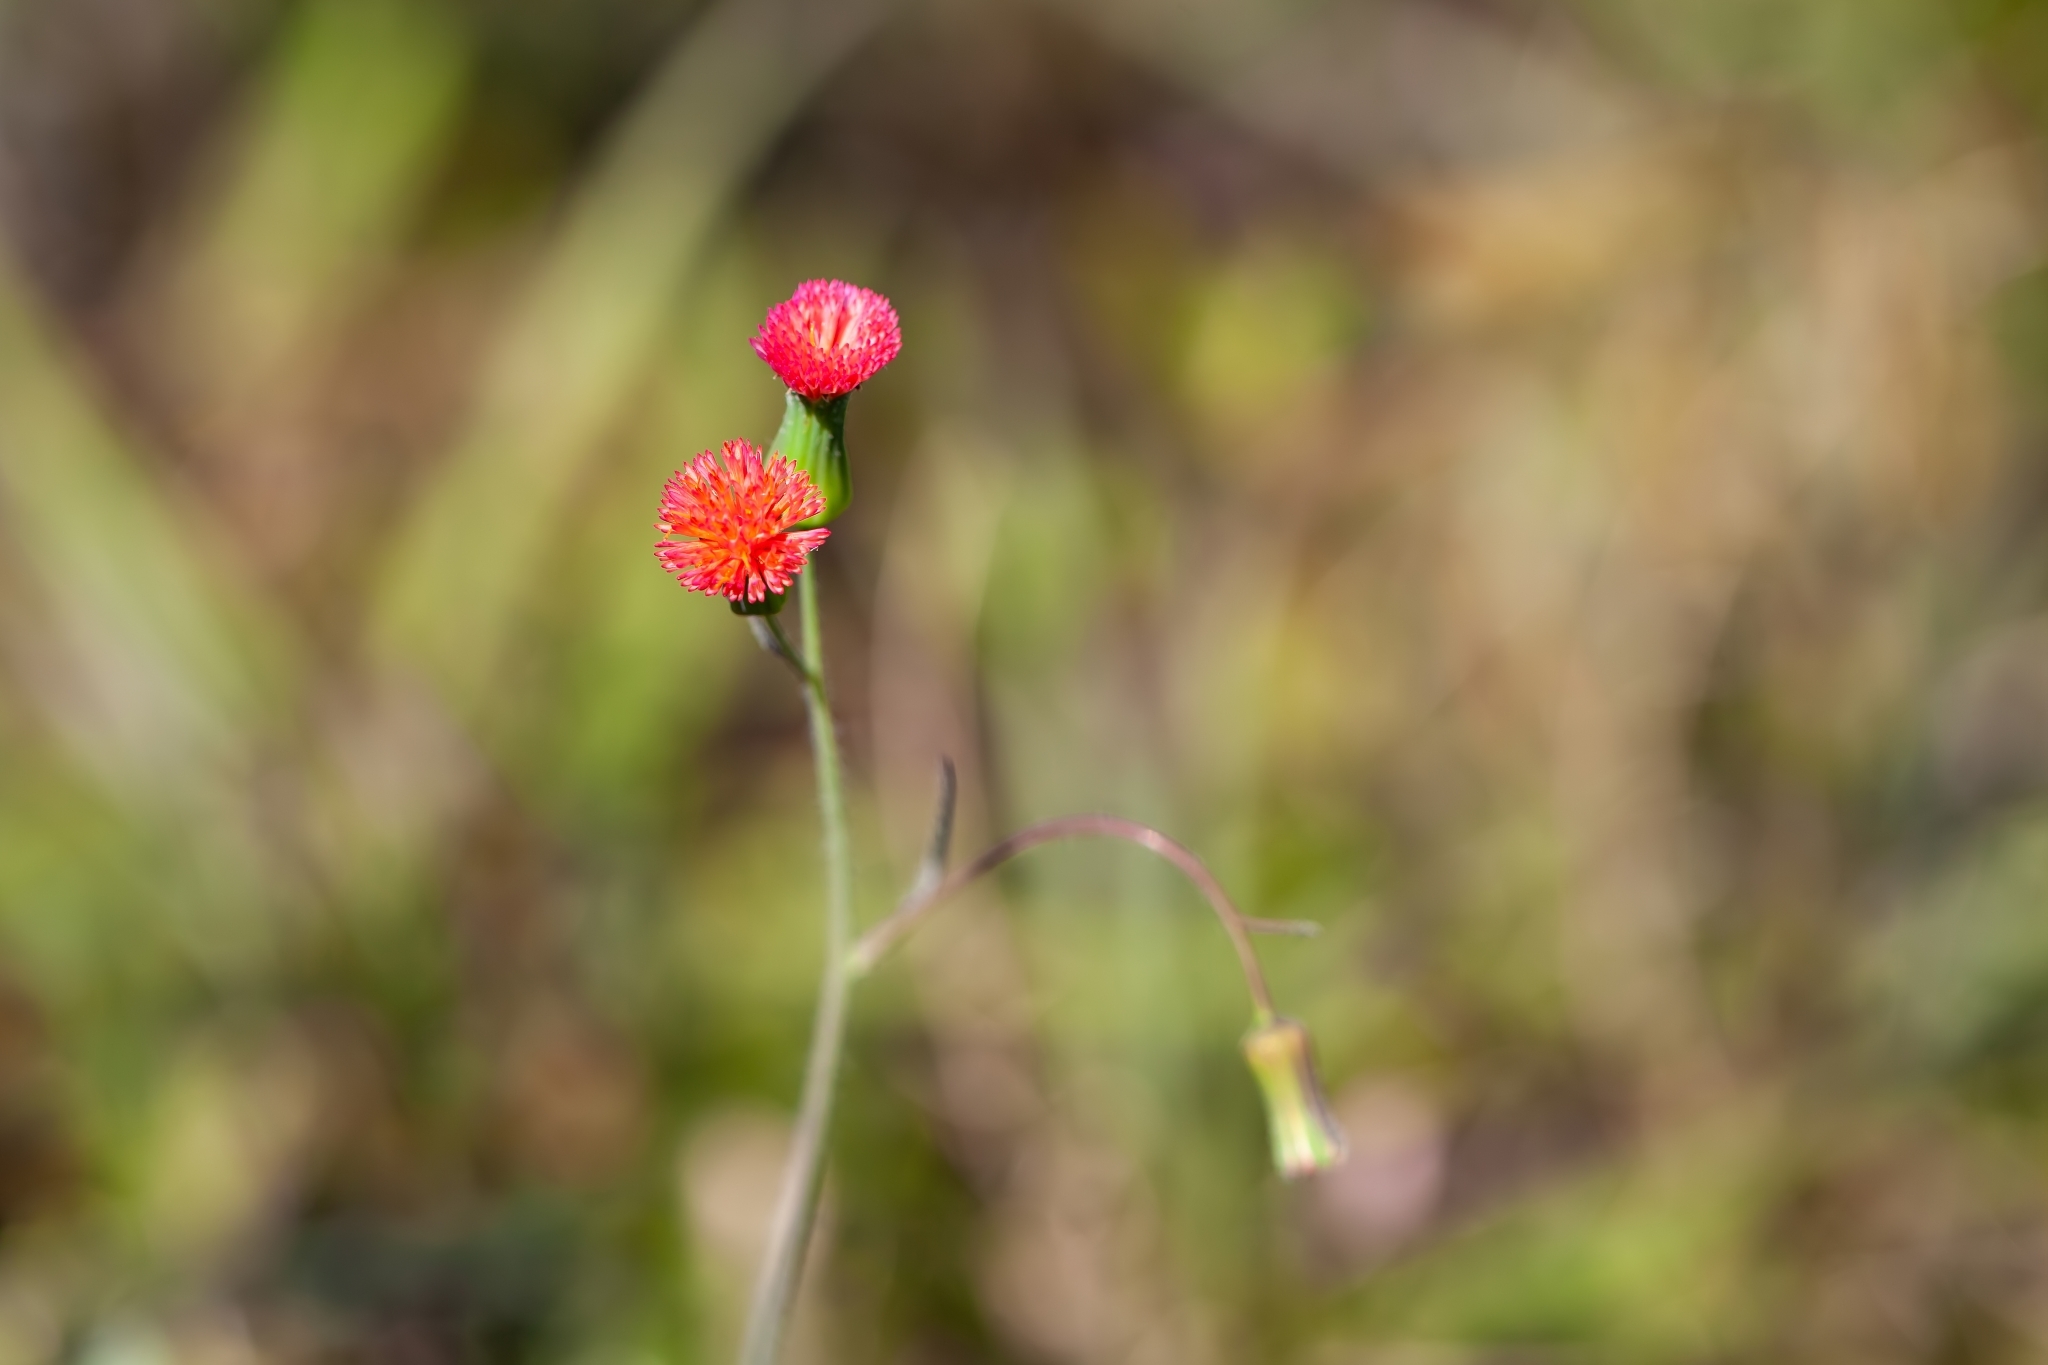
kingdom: Plantae
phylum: Tracheophyta
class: Magnoliopsida
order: Asterales
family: Asteraceae
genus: Emilia
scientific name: Emilia fosbergii
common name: Florida tasselflower
